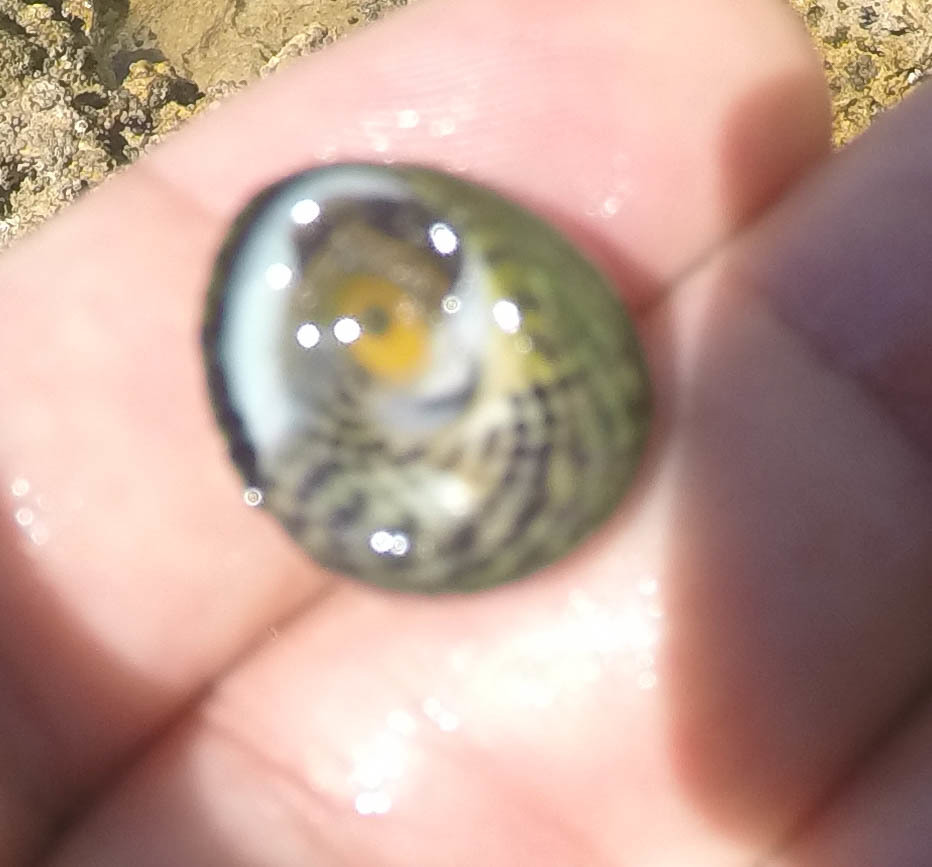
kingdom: Animalia
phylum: Mollusca
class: Gastropoda
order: Trochida
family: Trochidae
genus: Phorcus
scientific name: Phorcus sauciatus
